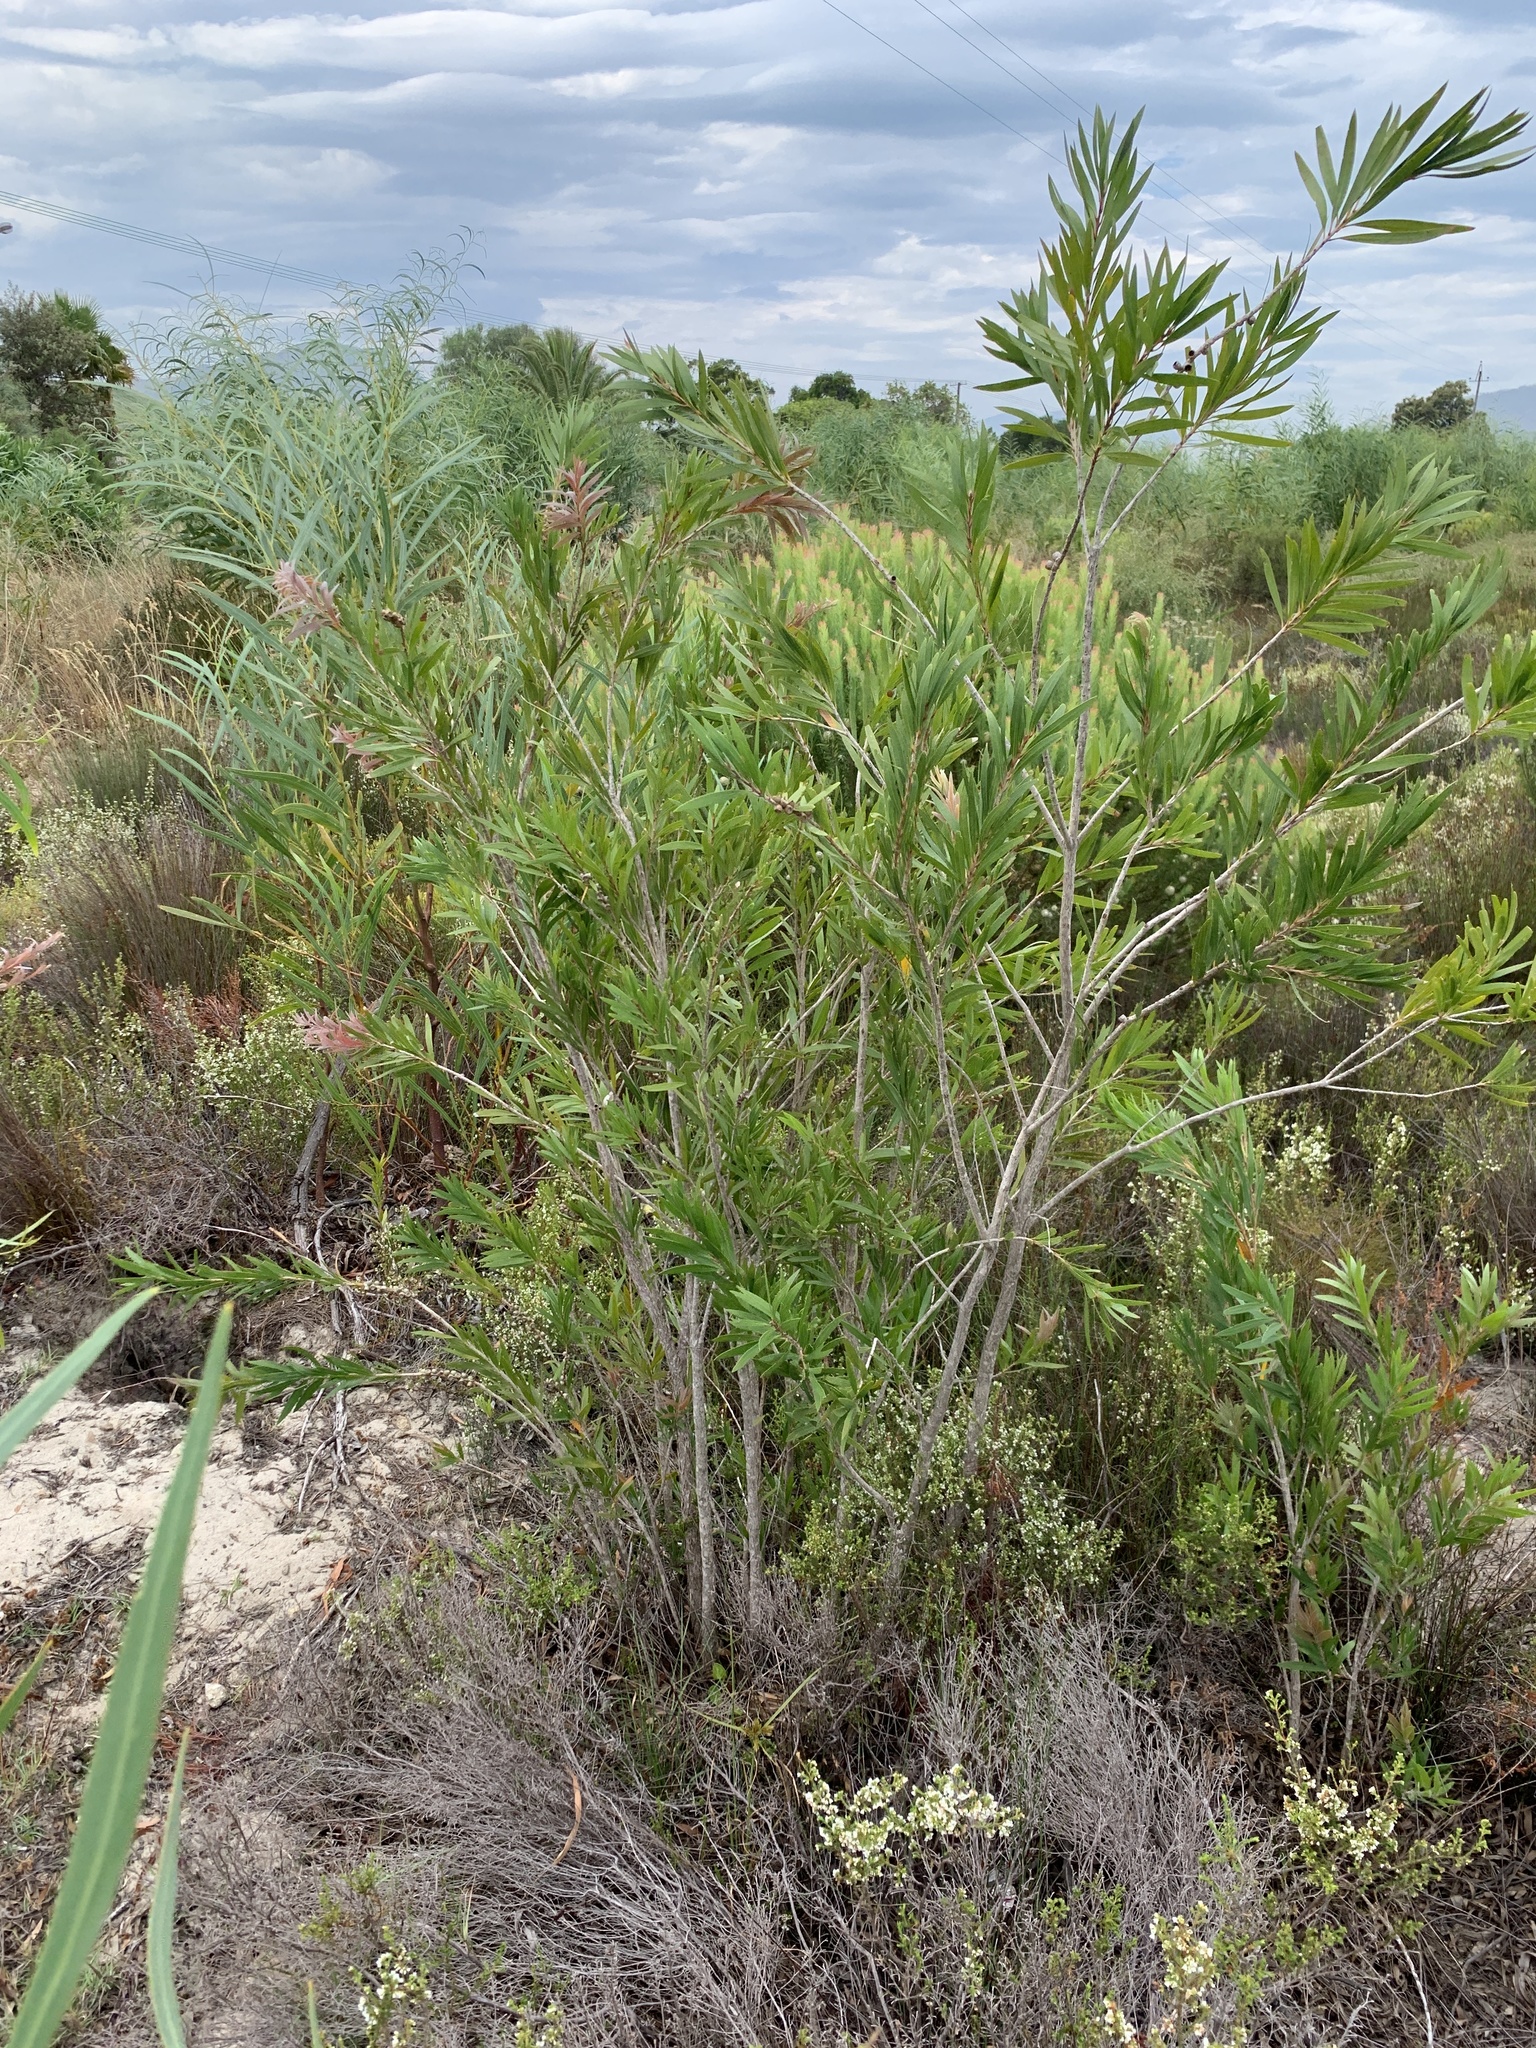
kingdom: Plantae
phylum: Tracheophyta
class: Magnoliopsida
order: Myrtales
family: Myrtaceae
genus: Callistemon
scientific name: Callistemon viminalis
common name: Drooping bottlebrush
